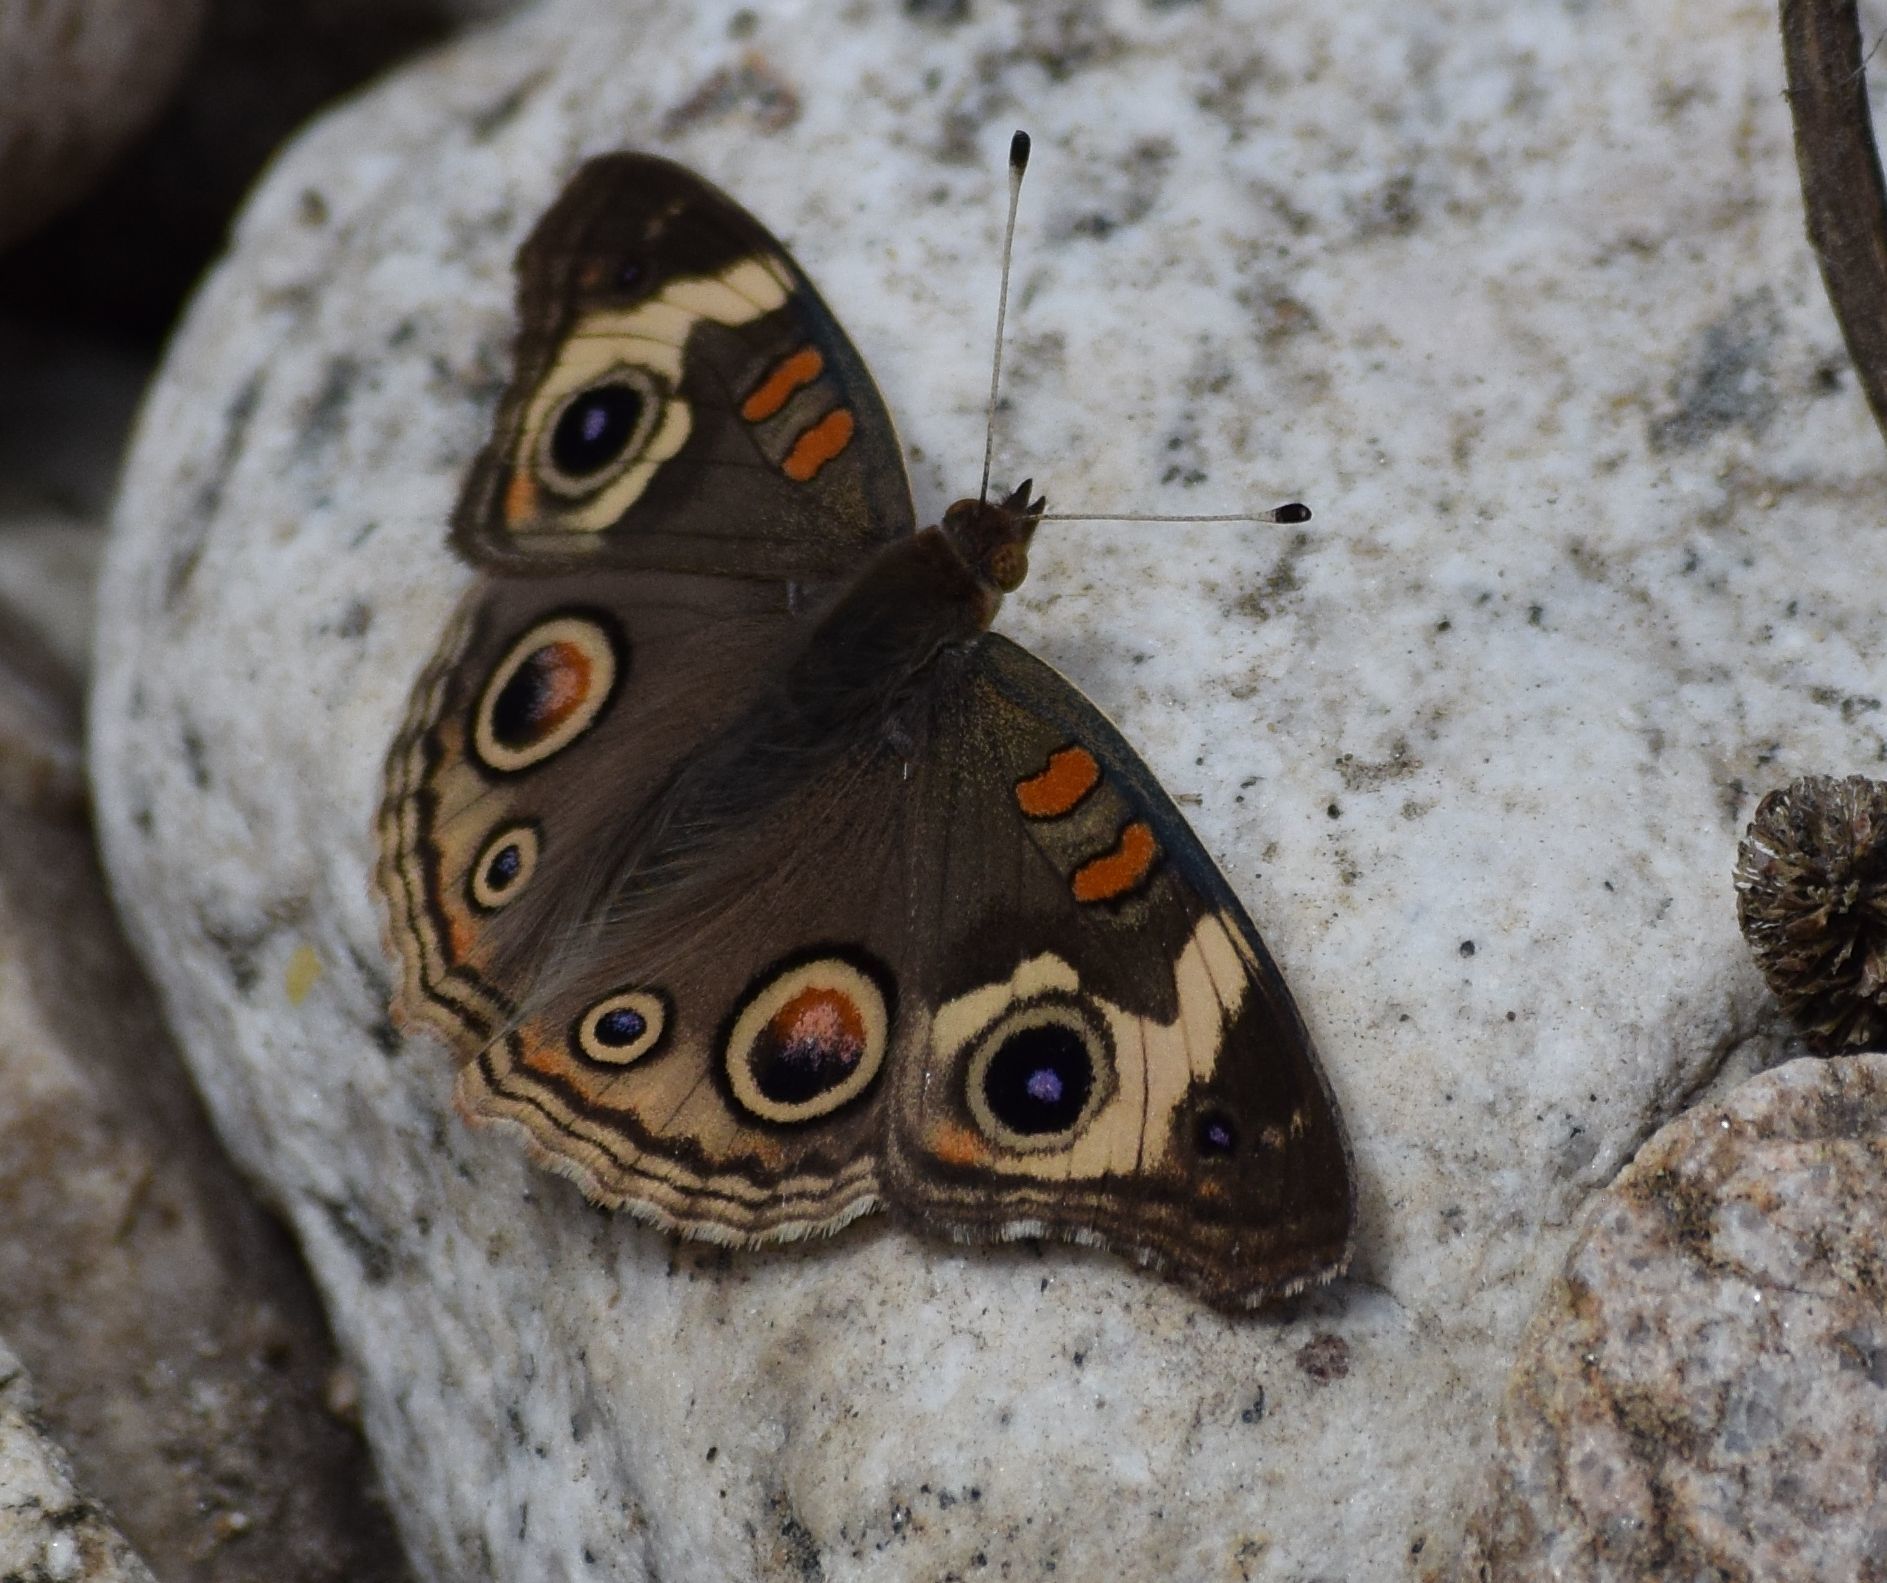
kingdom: Animalia
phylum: Arthropoda
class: Insecta
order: Lepidoptera
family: Nymphalidae
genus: Junonia
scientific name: Junonia grisea
